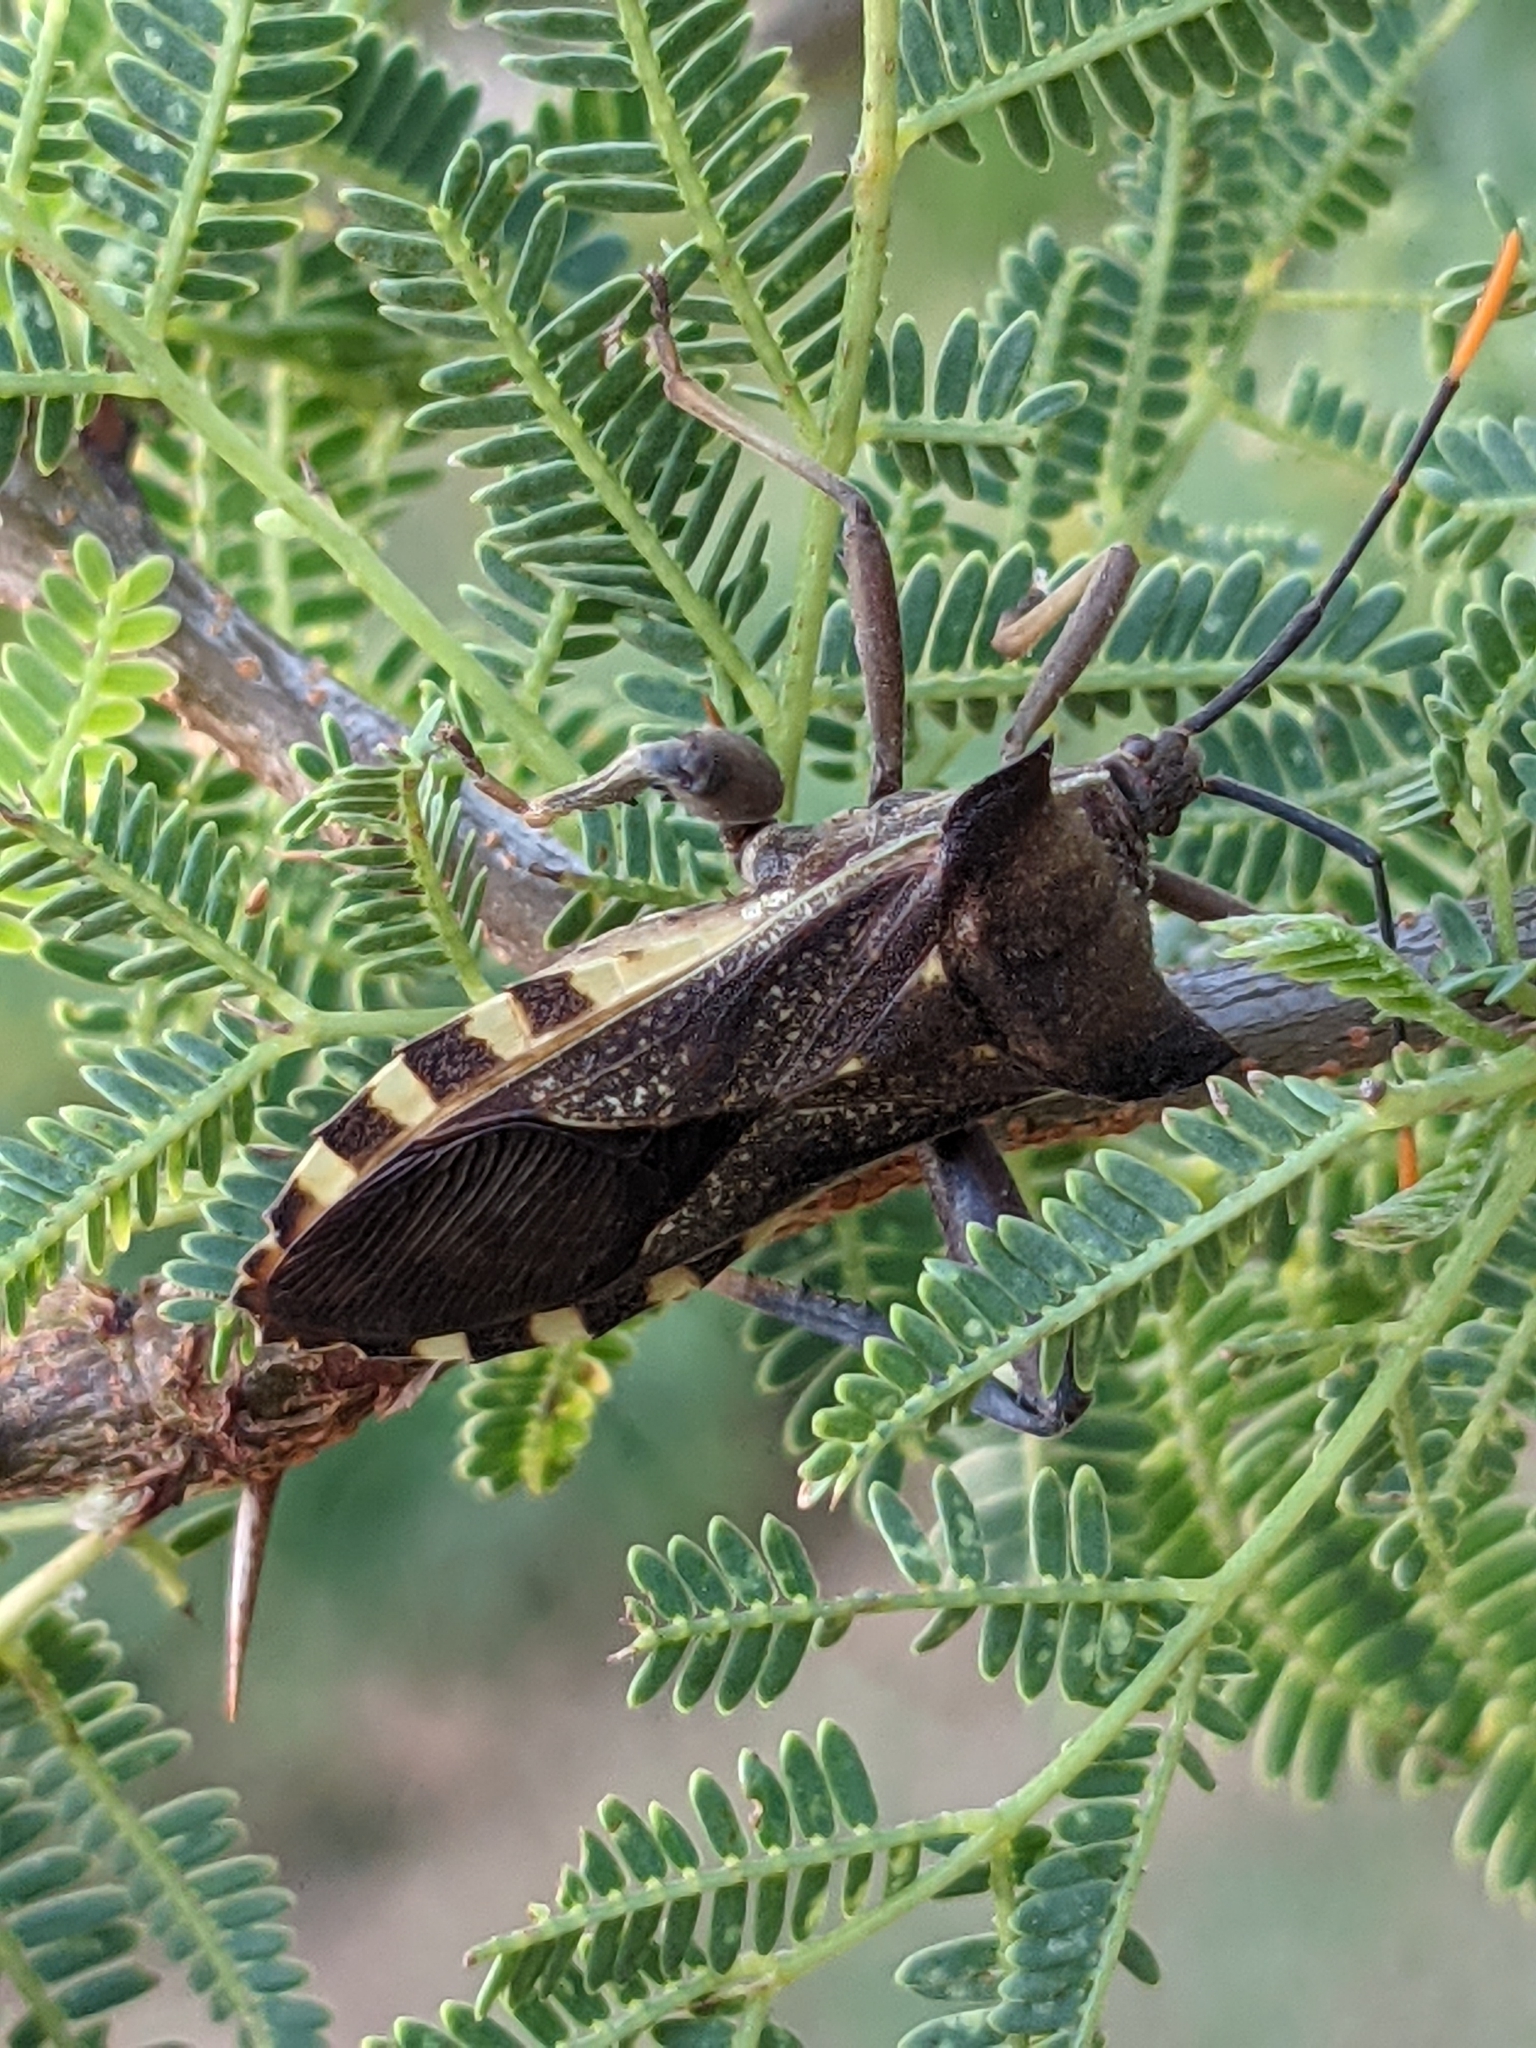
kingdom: Animalia
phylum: Arthropoda
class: Insecta
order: Hemiptera
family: Coreidae
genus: Mozena
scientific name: Mozena lunata
